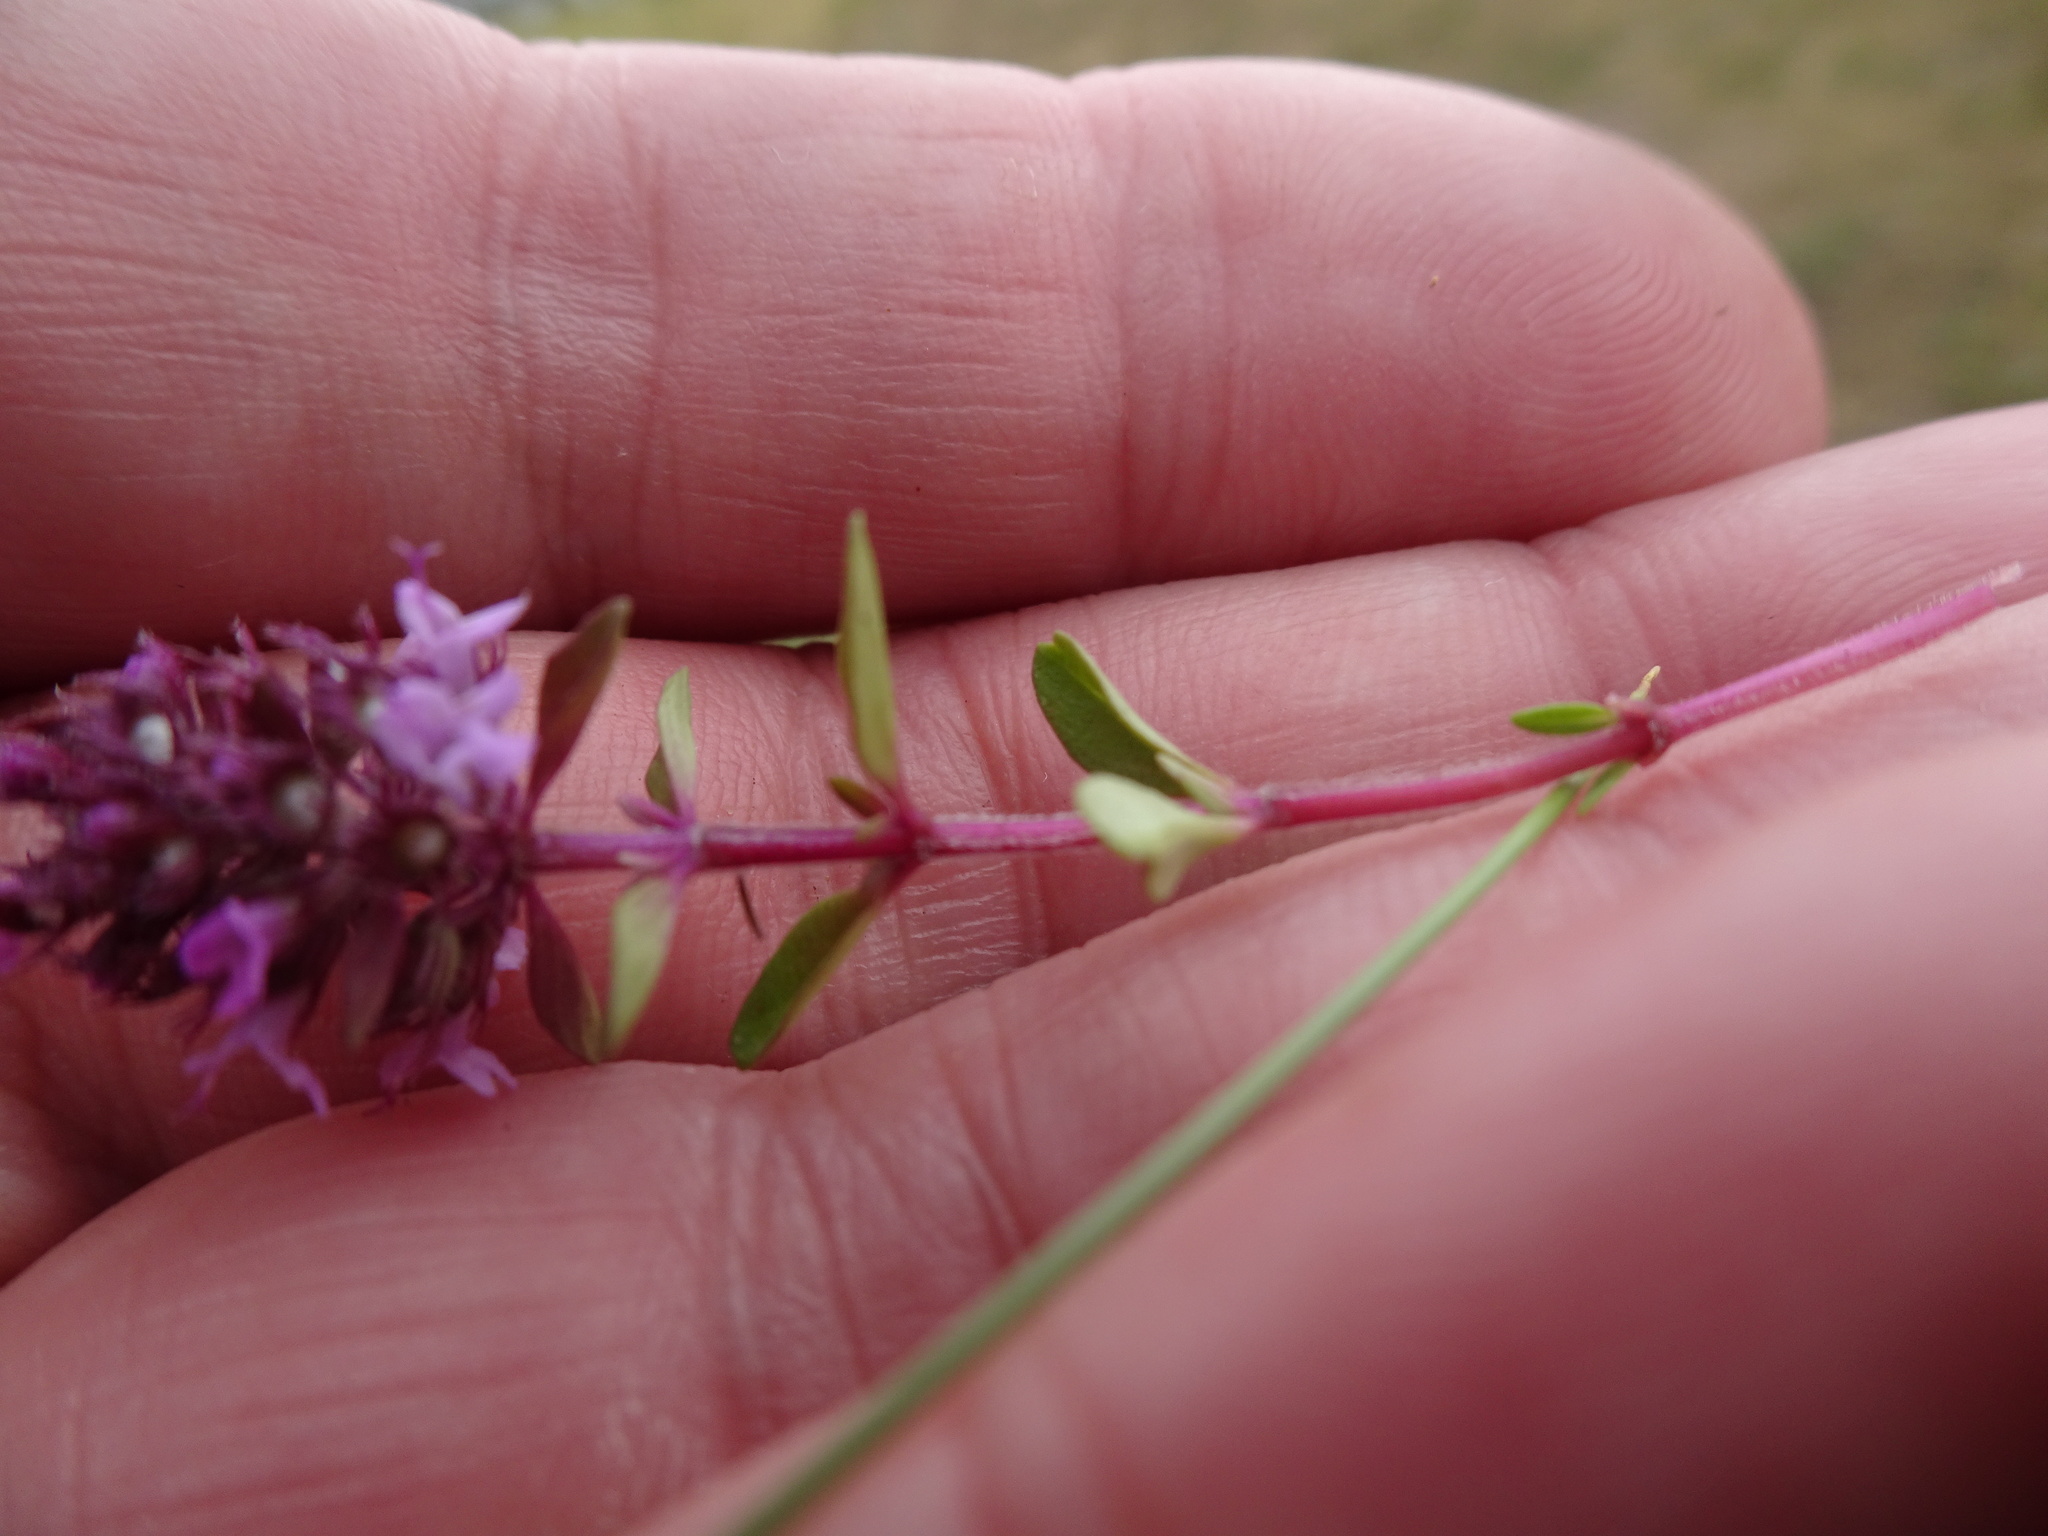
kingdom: Plantae
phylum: Tracheophyta
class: Magnoliopsida
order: Lamiales
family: Lamiaceae
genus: Thymus
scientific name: Thymus pulegioides
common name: Large thyme
